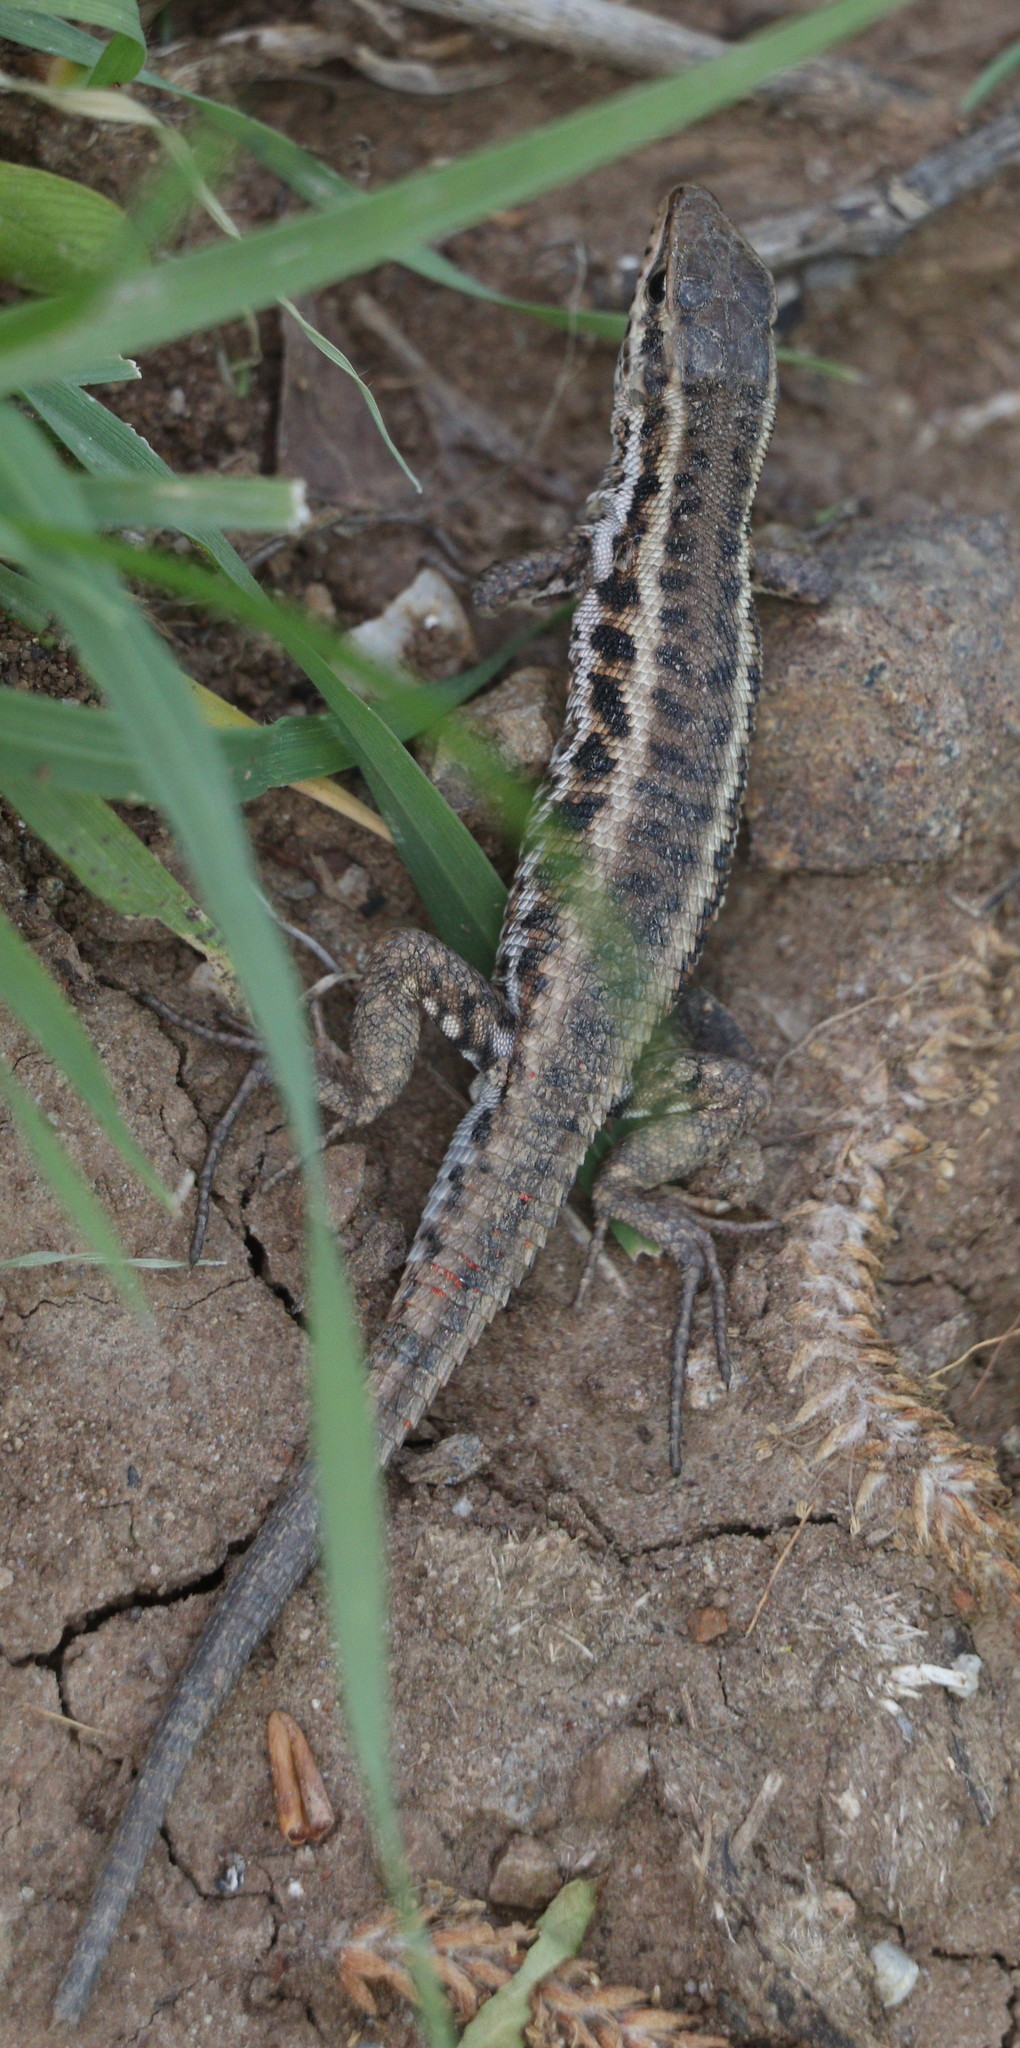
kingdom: Animalia
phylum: Chordata
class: Squamata
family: Lacertidae
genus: Ophisops
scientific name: Ophisops elegans
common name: Snake-eyed lizard
